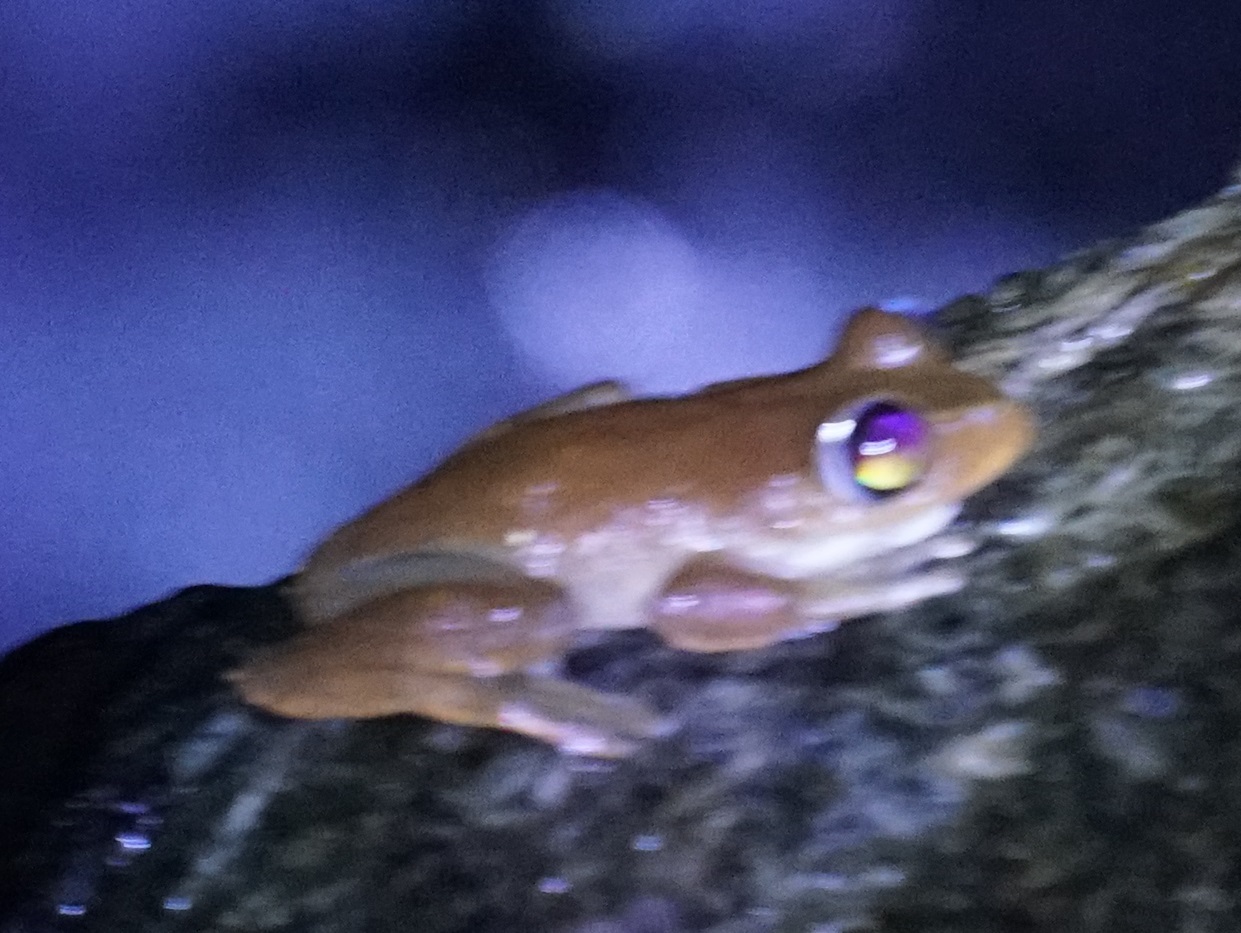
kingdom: Animalia
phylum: Chordata
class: Amphibia
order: Anura
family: Pelodryadidae
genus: Ranoidea
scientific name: Ranoidea dayi
